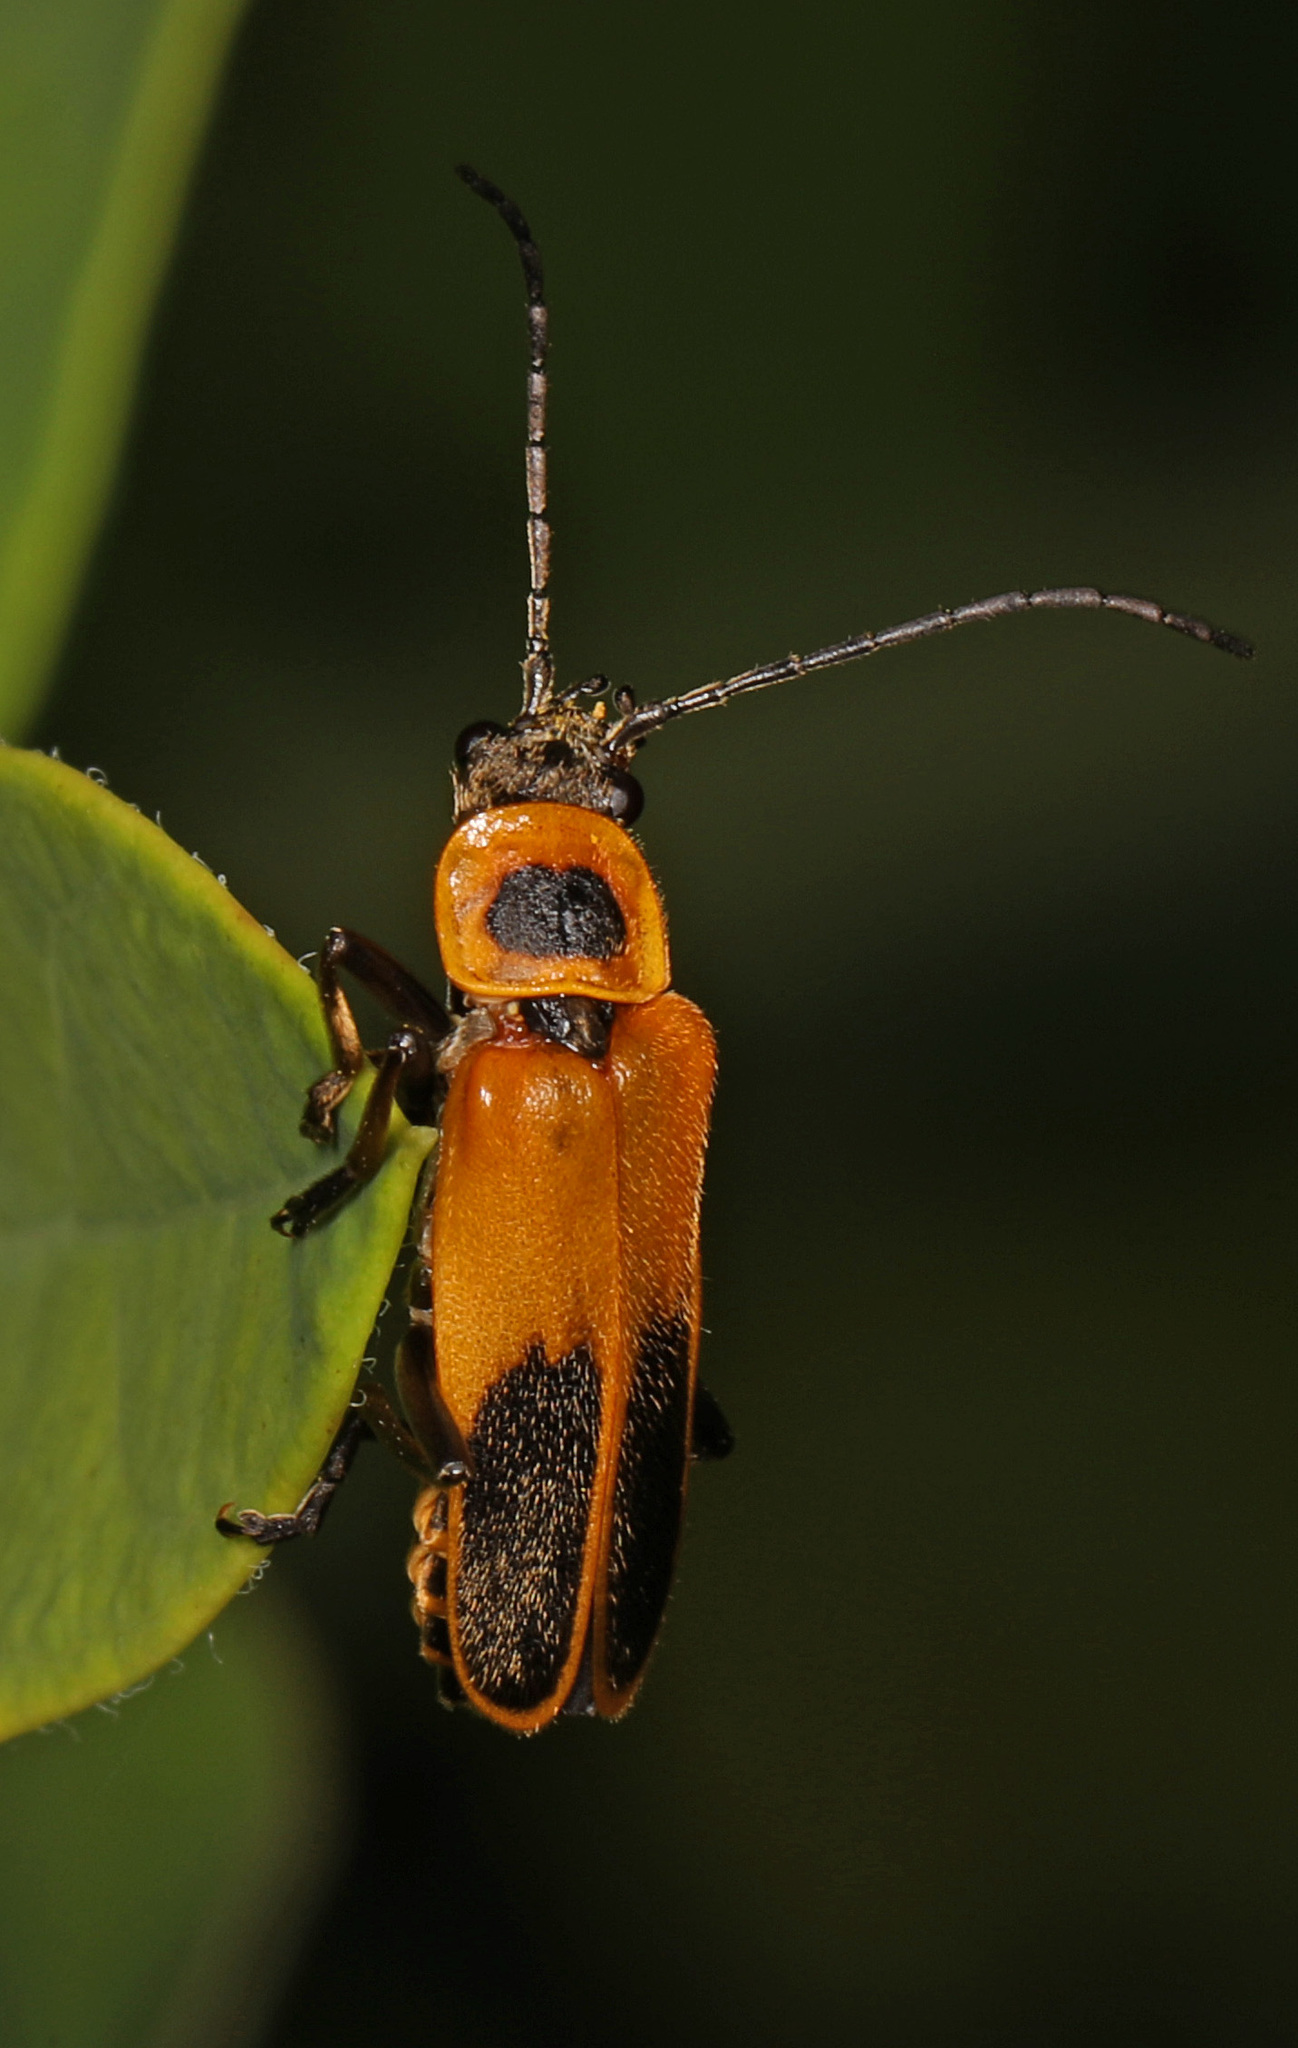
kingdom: Animalia
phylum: Arthropoda
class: Insecta
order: Coleoptera
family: Cantharidae
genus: Chauliognathus
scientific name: Chauliognathus pensylvanicus
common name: Goldenrod soldier beetle
